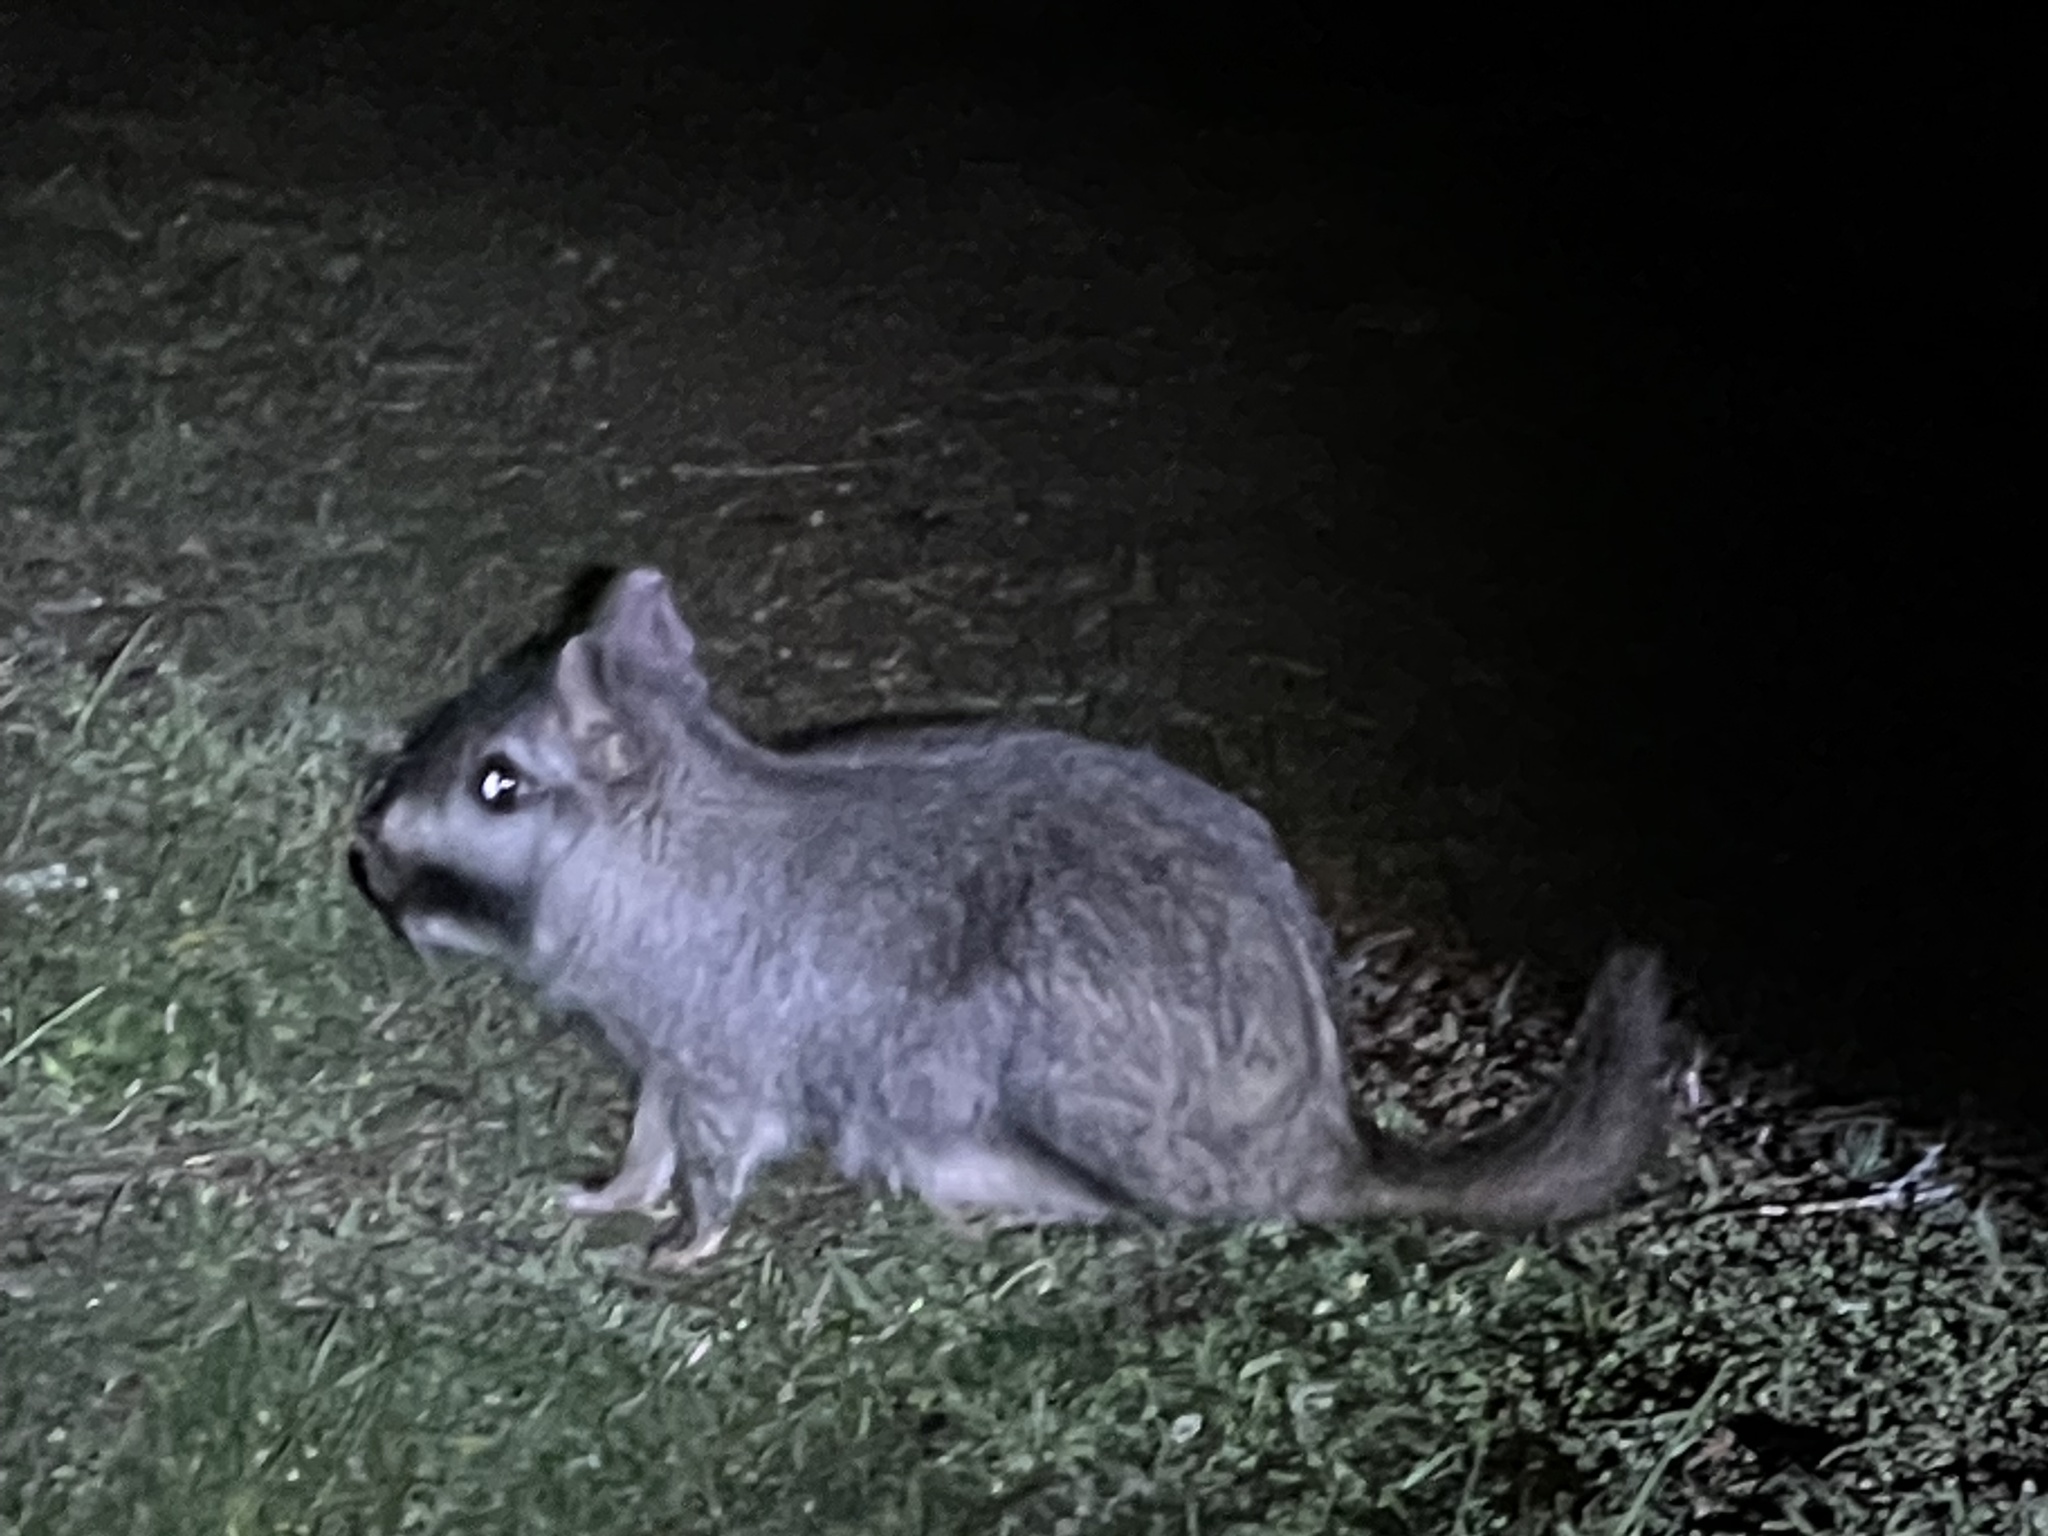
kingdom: Animalia
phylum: Chordata
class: Mammalia
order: Rodentia
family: Chinchillidae
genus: Lagostomus
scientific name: Lagostomus maximus
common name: Plains viscacha
